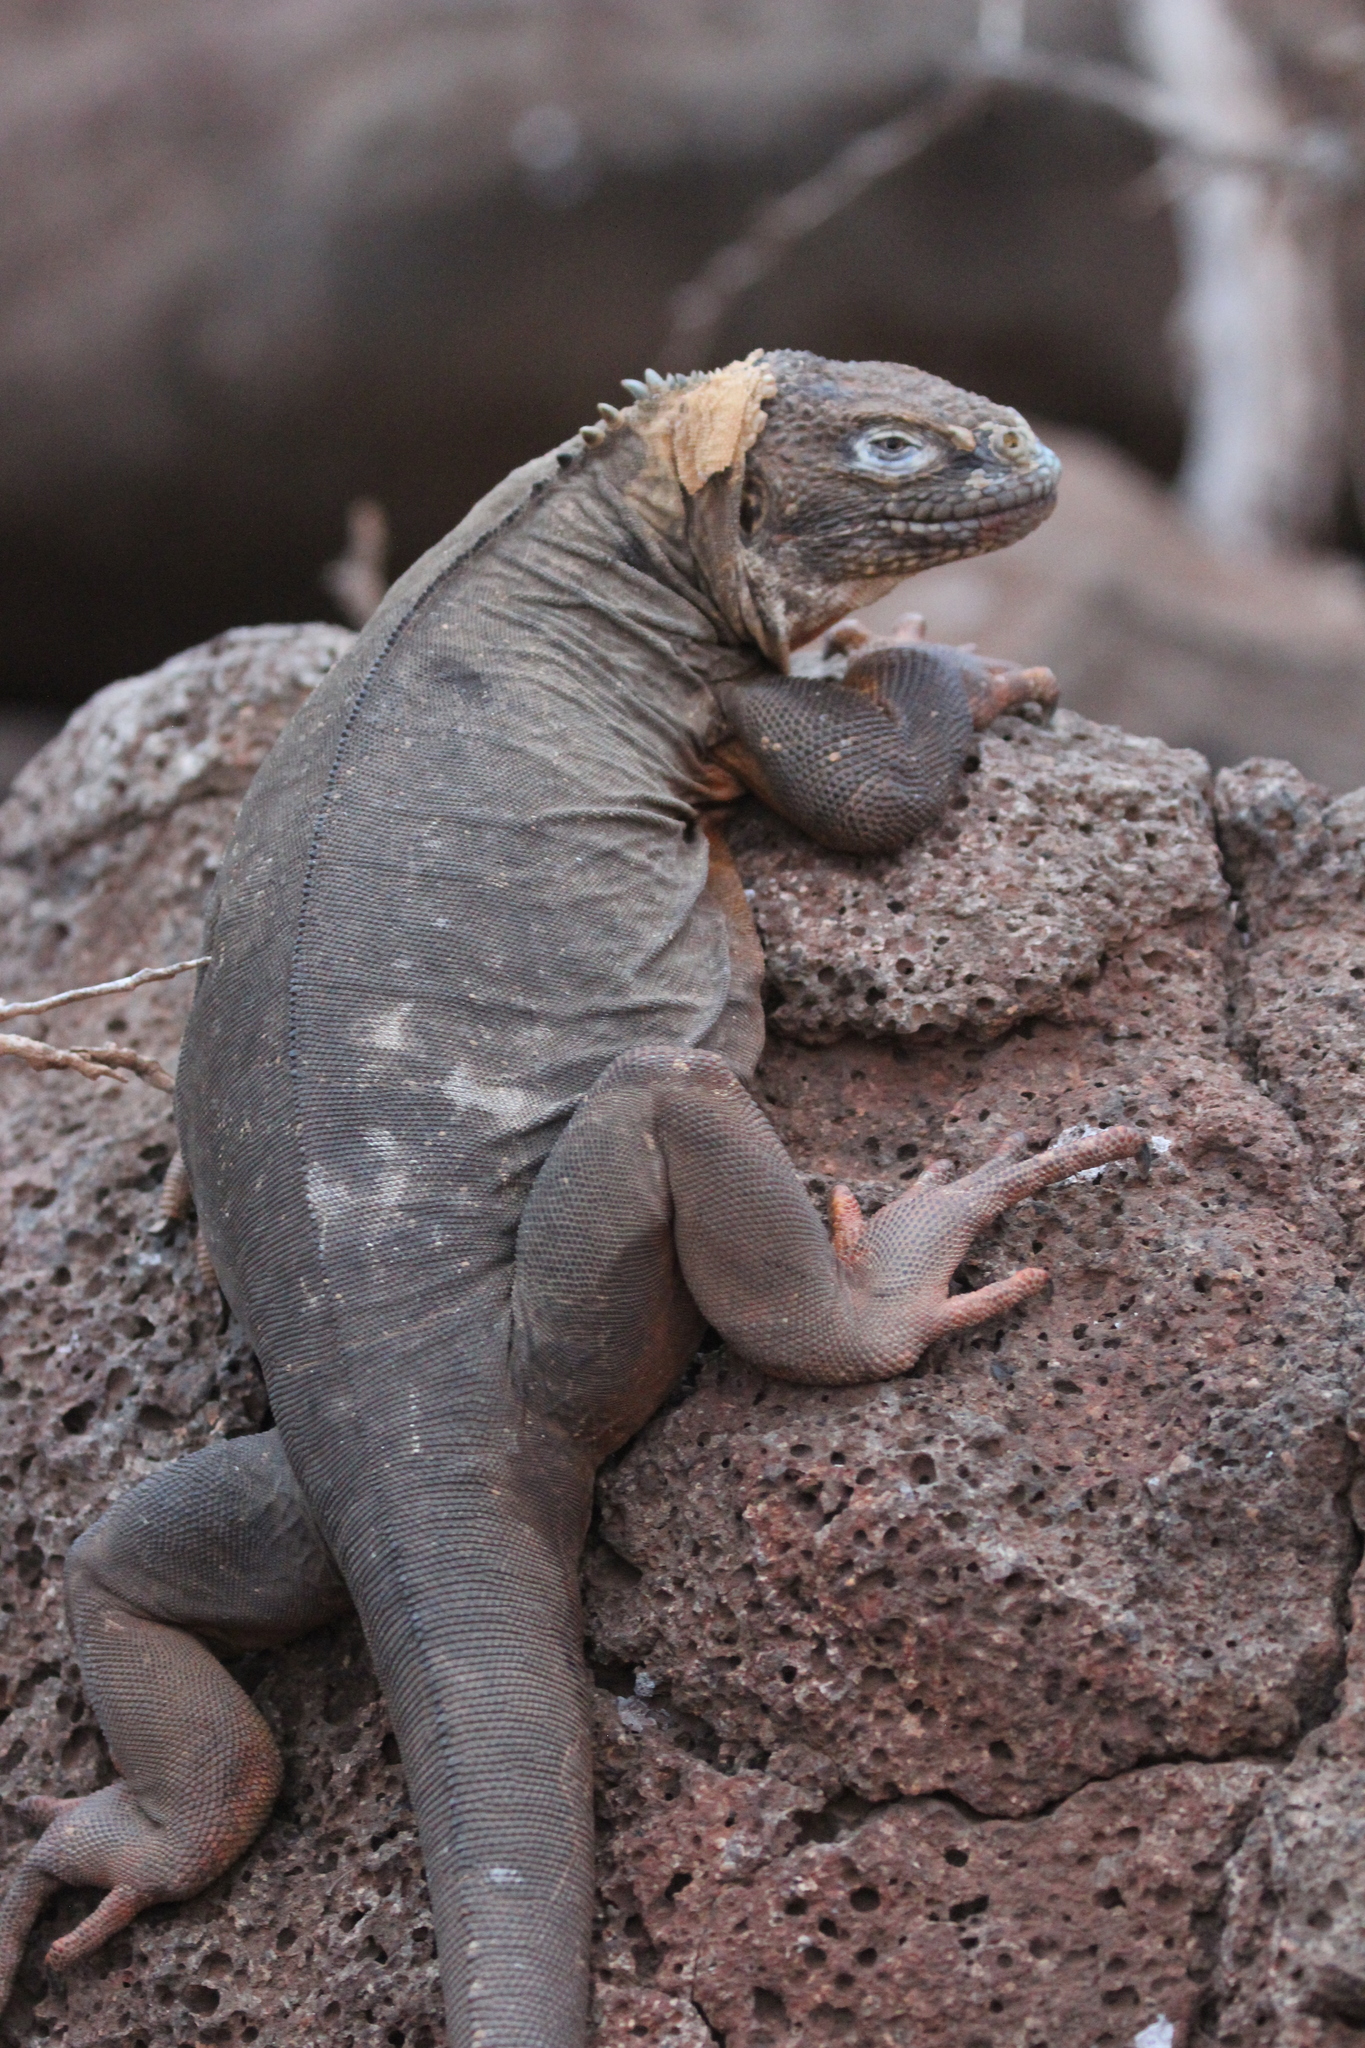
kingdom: Animalia
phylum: Chordata
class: Squamata
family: Iguanidae
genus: Conolophus
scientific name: Conolophus subcristatus
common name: Galapagos land iguana
